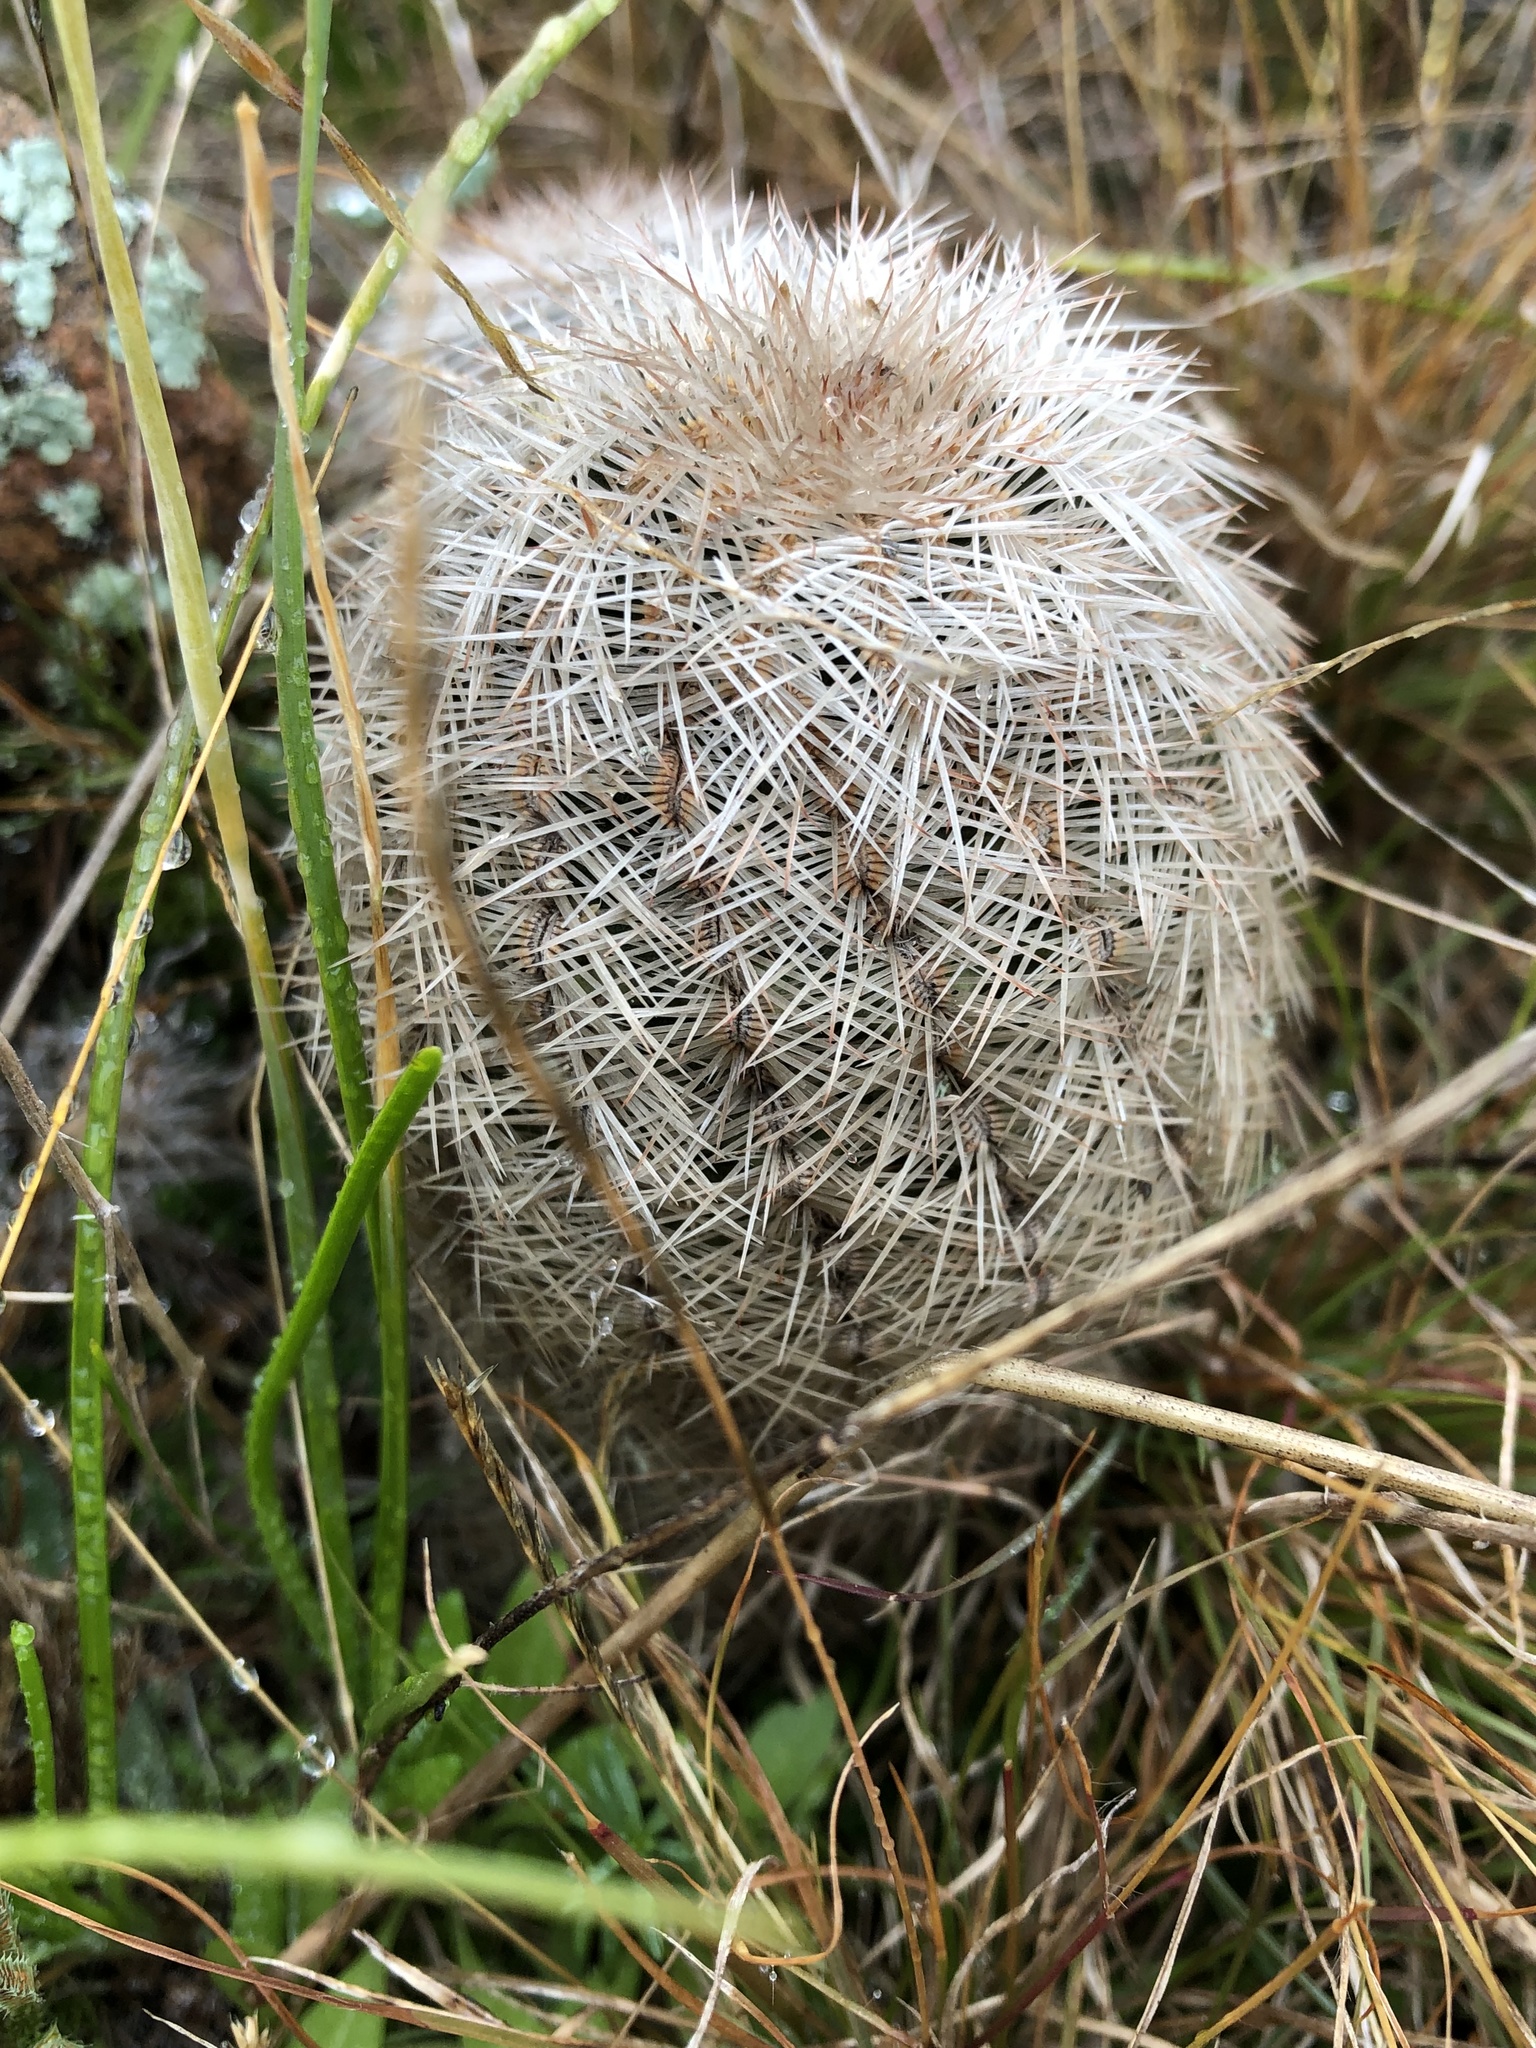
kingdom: Plantae
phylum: Tracheophyta
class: Magnoliopsida
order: Caryophyllales
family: Cactaceae
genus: Echinocereus
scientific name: Echinocereus reichenbachii
